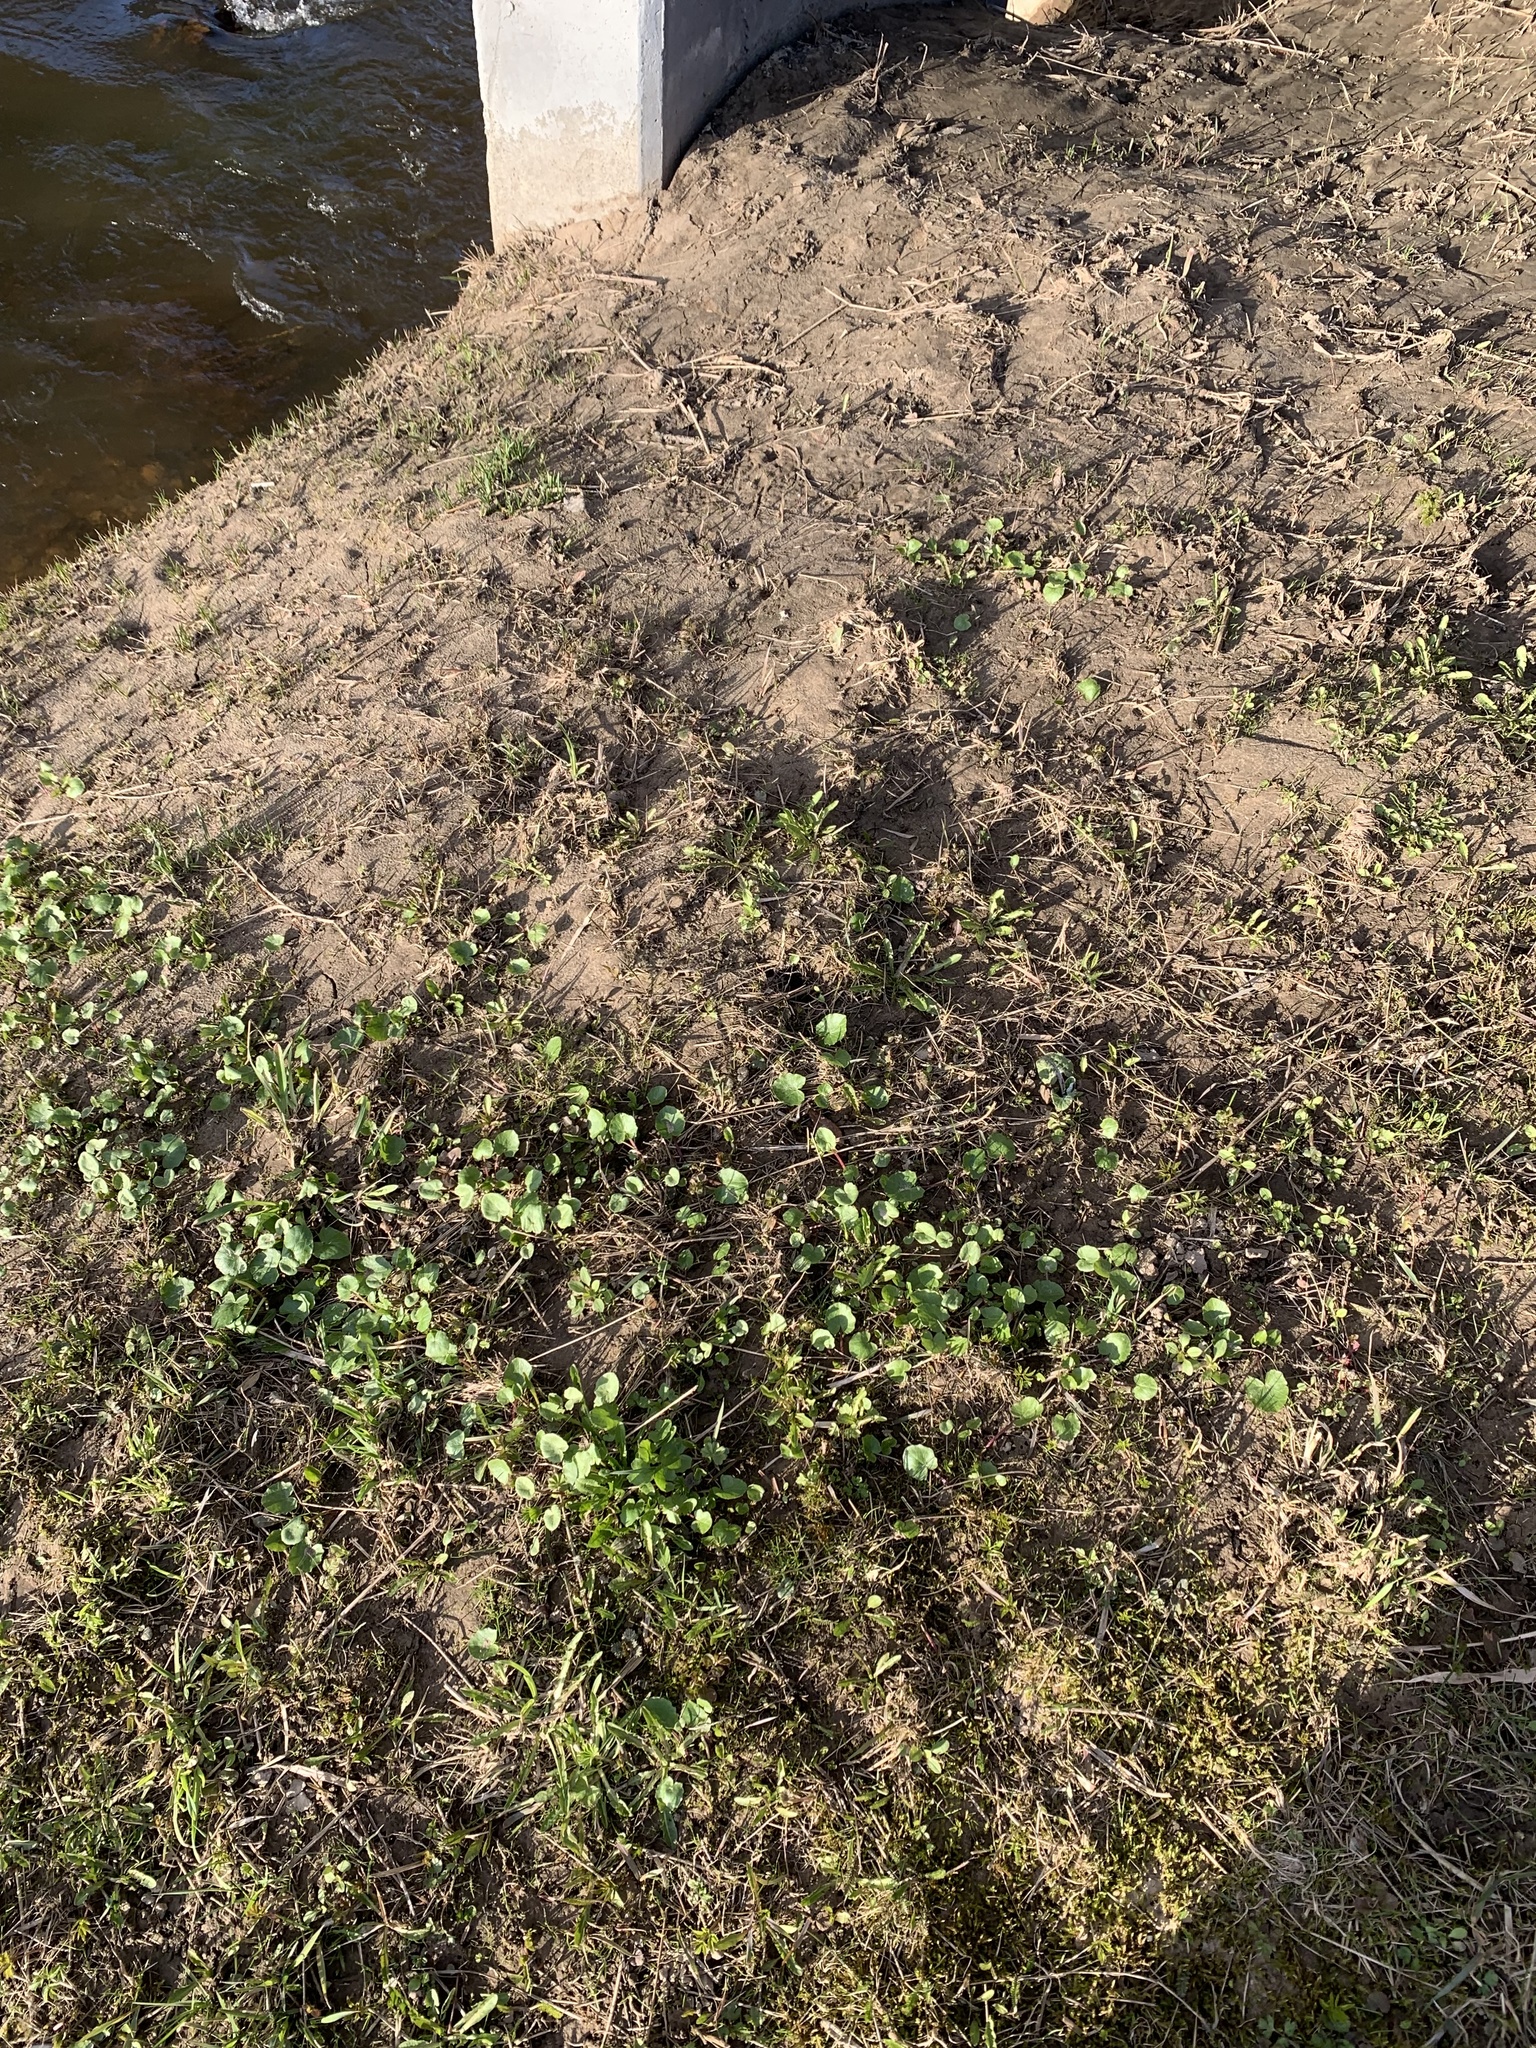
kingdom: Plantae
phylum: Tracheophyta
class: Magnoliopsida
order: Ranunculales
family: Ranunculaceae
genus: Ficaria
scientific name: Ficaria verna
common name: Lesser celandine
